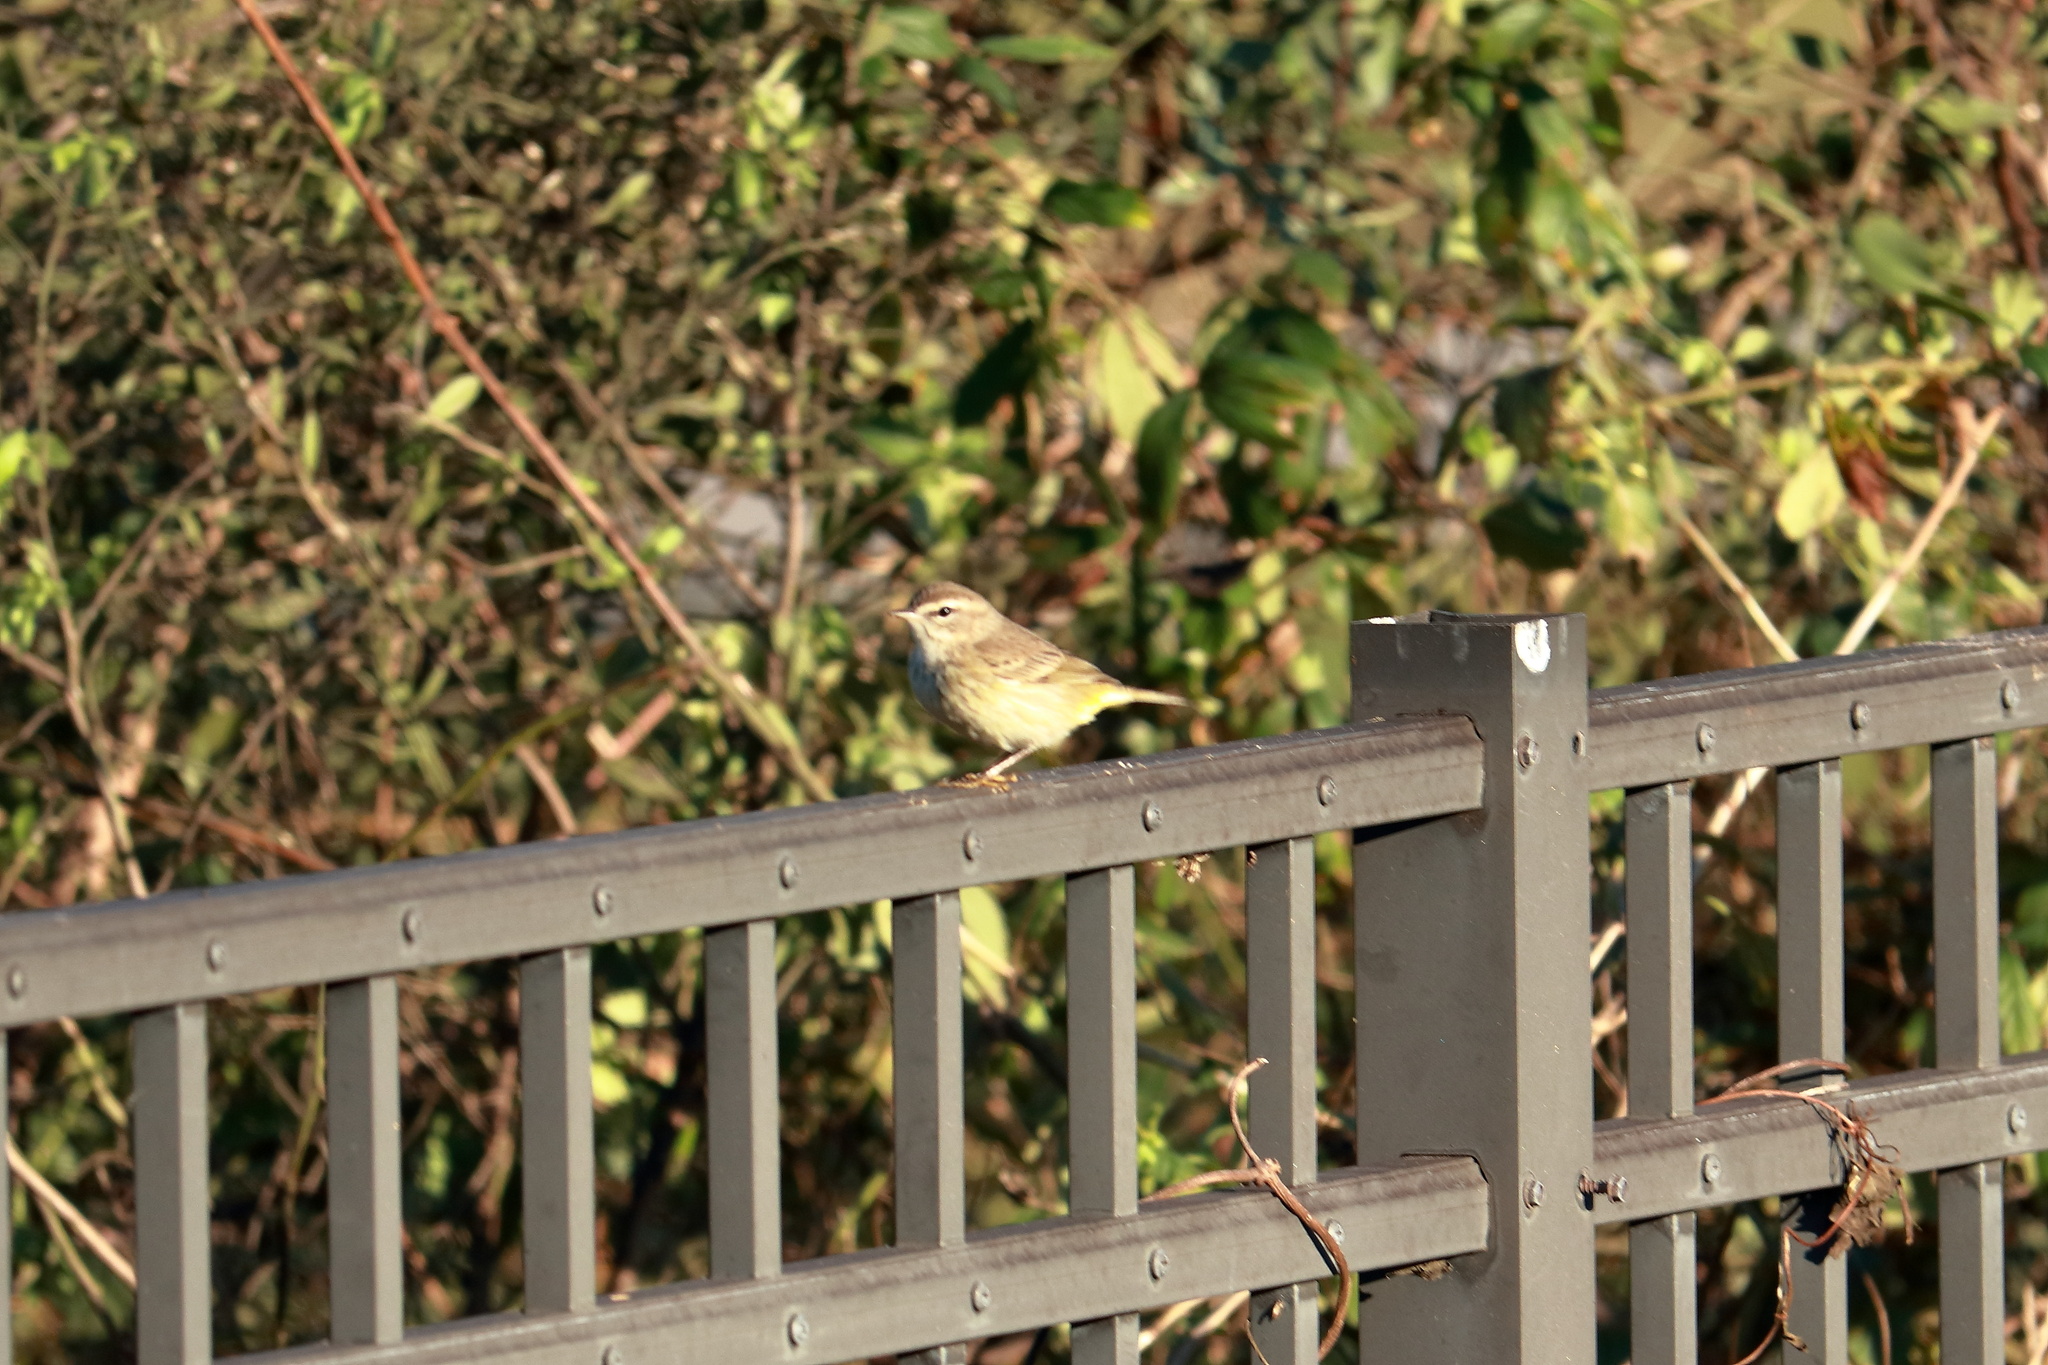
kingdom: Animalia
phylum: Chordata
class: Aves
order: Passeriformes
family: Parulidae
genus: Setophaga
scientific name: Setophaga palmarum
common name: Palm warbler
